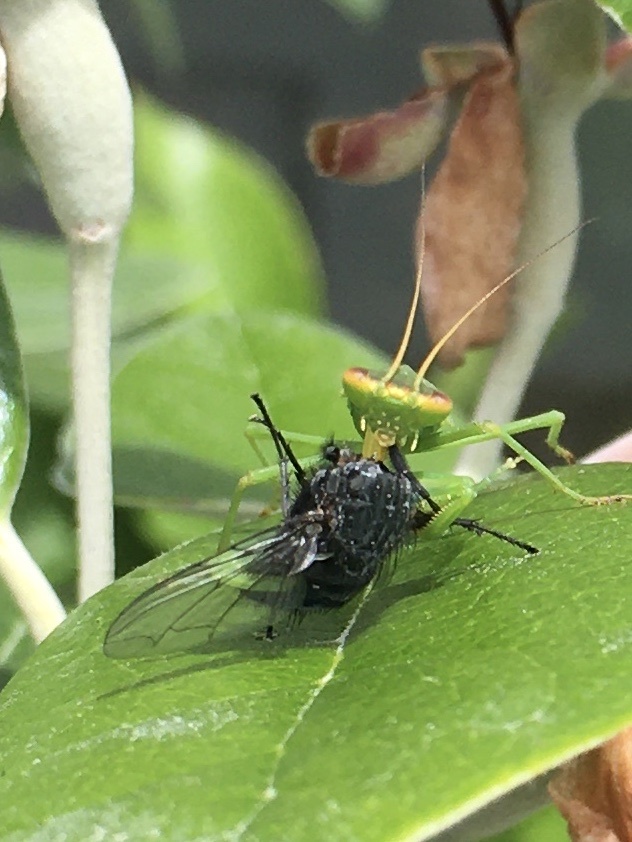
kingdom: Animalia
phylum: Arthropoda
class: Insecta
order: Mantodea
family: Mantidae
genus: Orthodera
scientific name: Orthodera novaezealandiae
